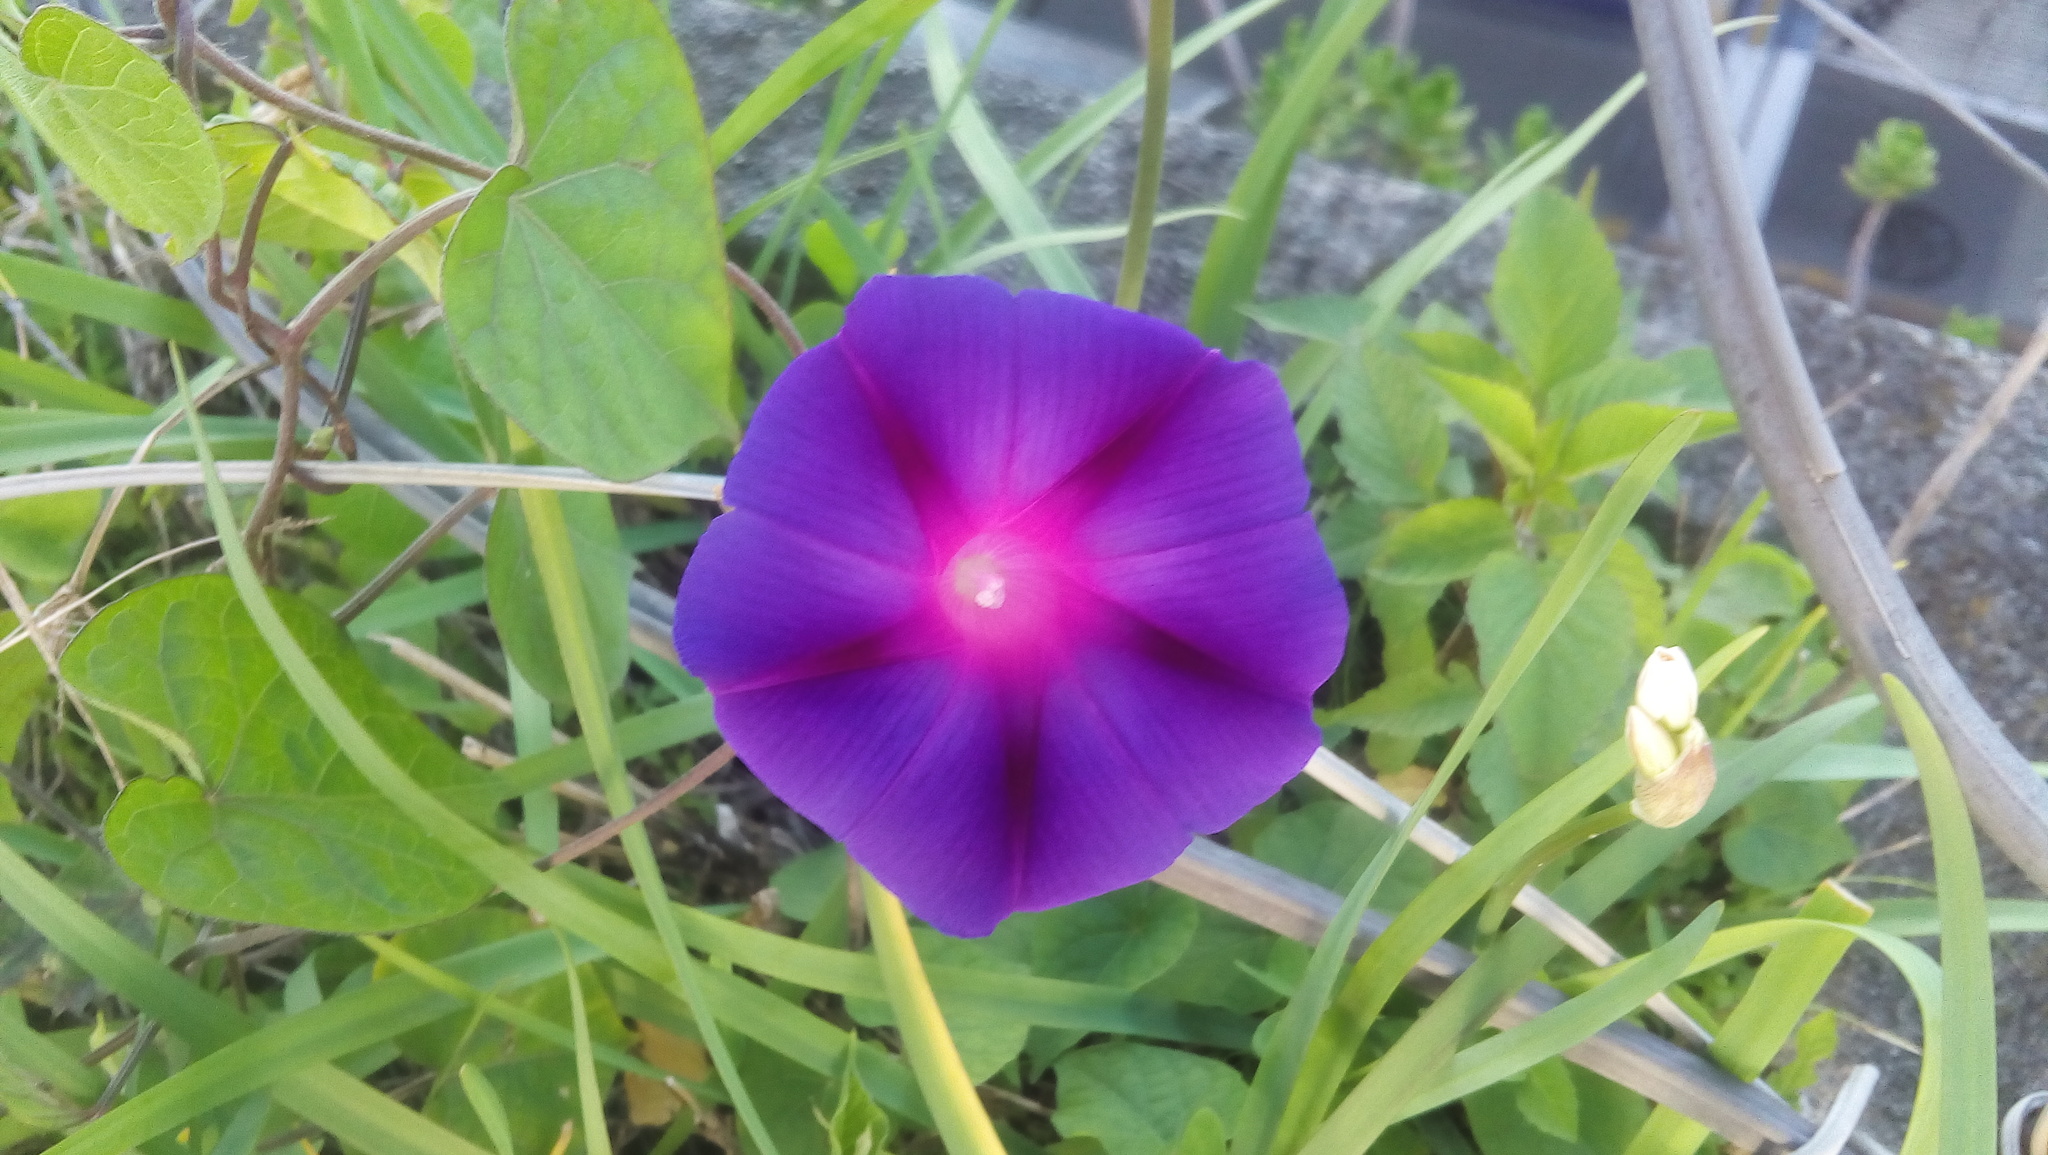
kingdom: Plantae
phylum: Tracheophyta
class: Magnoliopsida
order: Solanales
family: Convolvulaceae
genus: Ipomoea
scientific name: Ipomoea purpurea
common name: Common morning-glory
